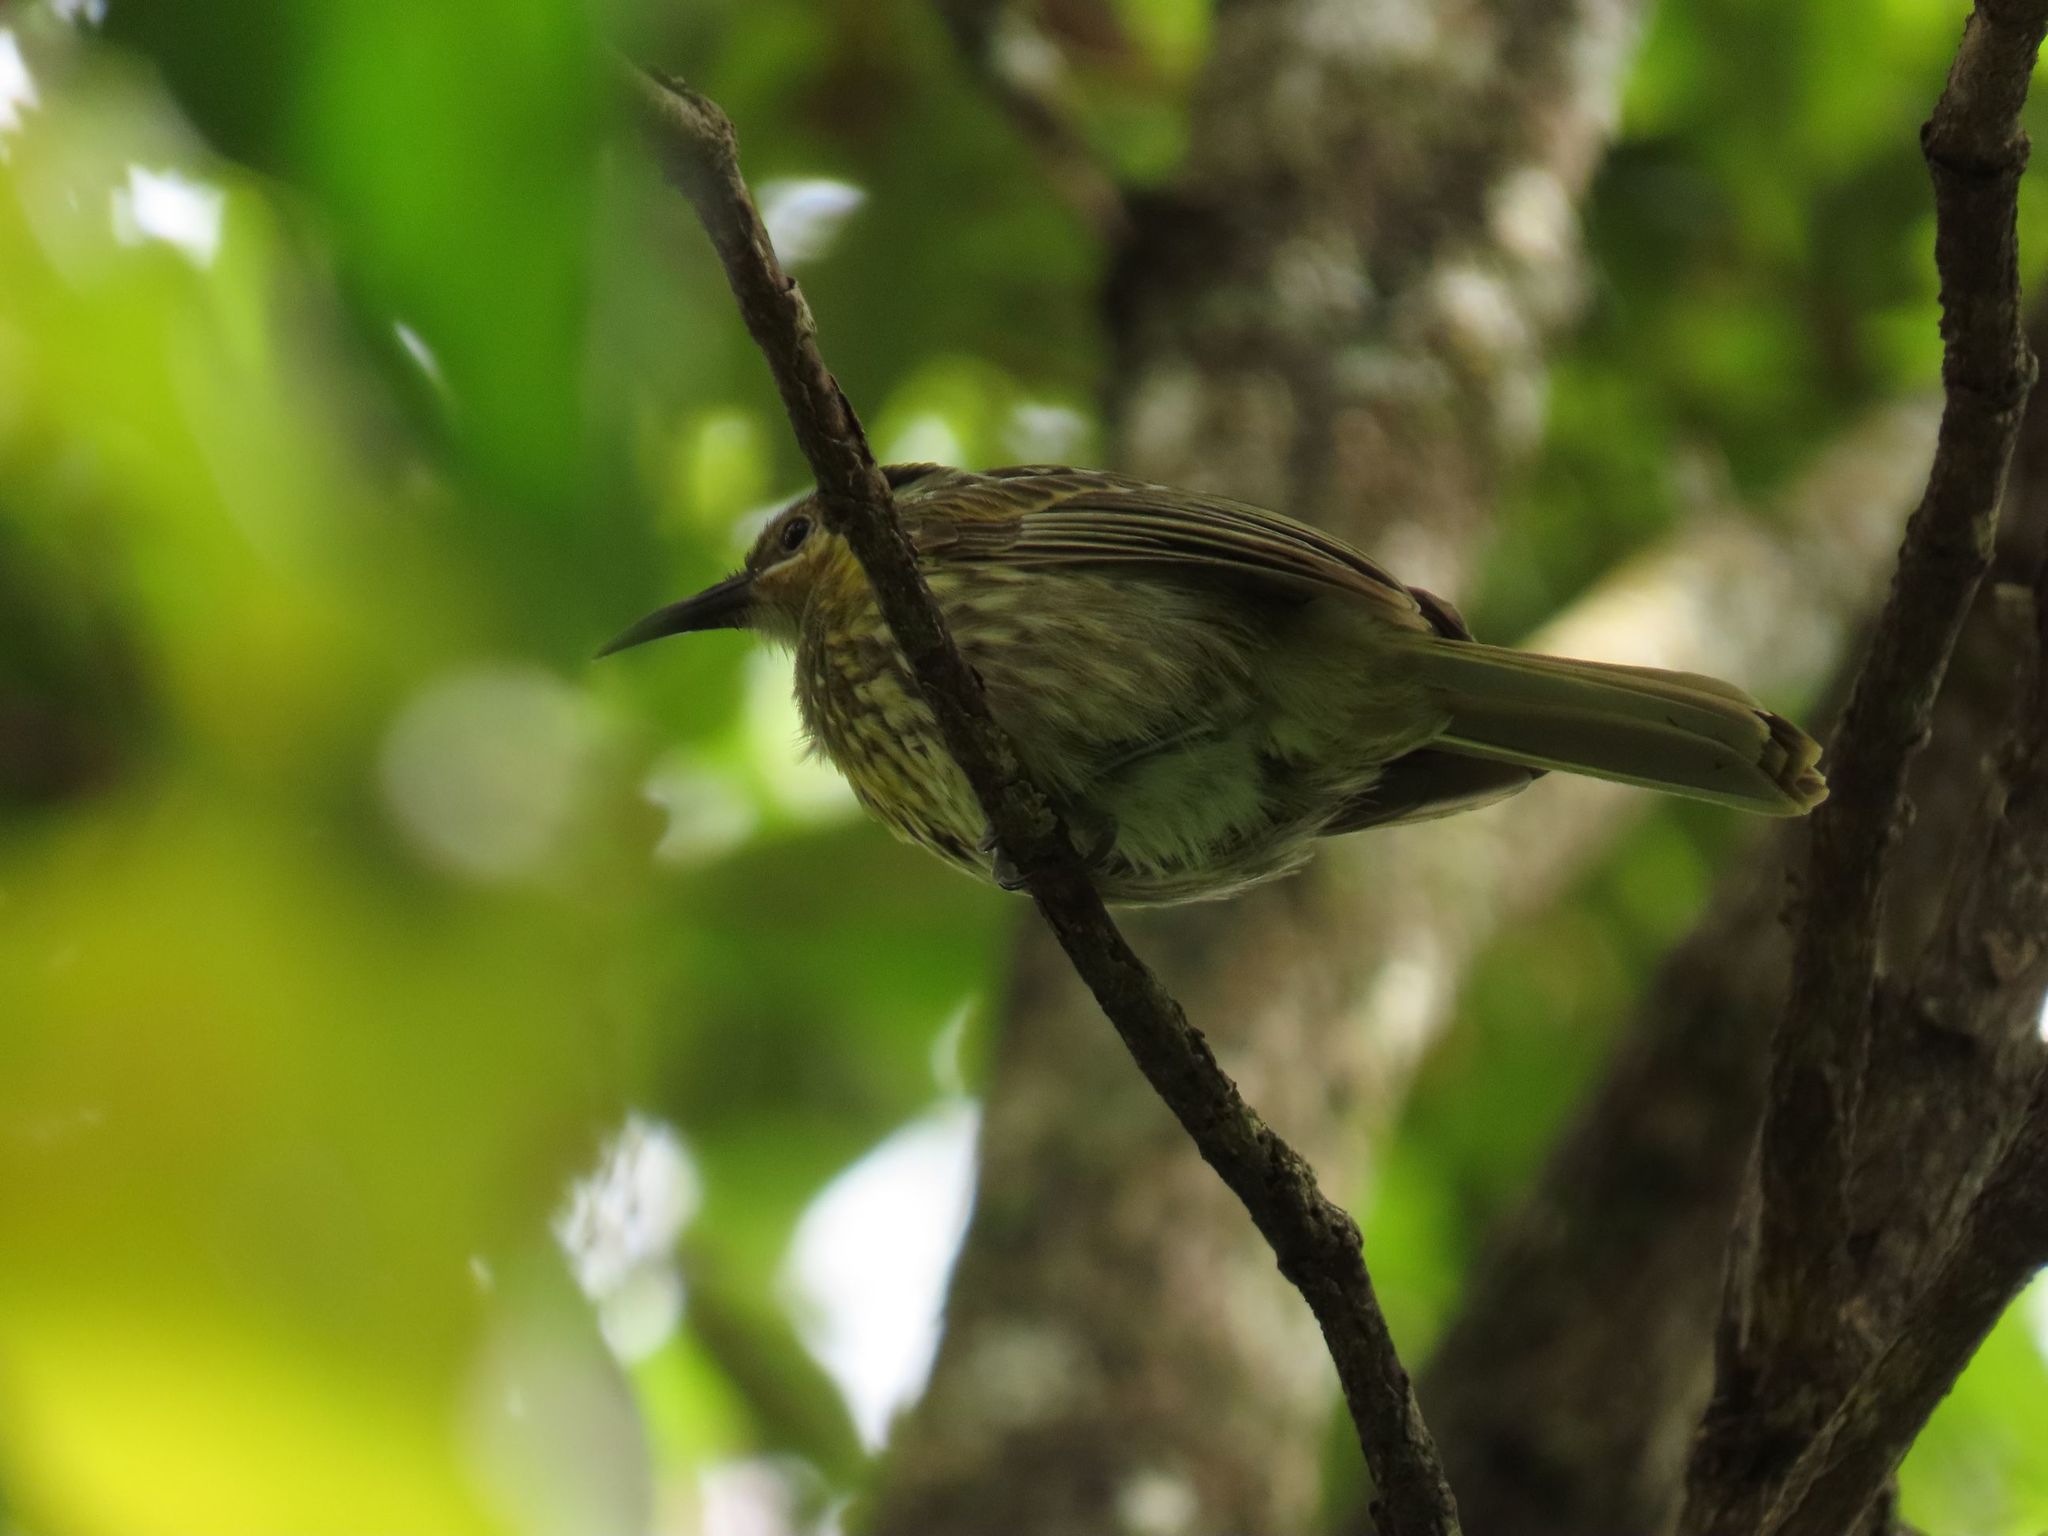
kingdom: Animalia
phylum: Chordata
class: Aves
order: Passeriformes
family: Meliphagidae
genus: Xanthotis
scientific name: Xanthotis macleayanus
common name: Macleay's honeyeater
